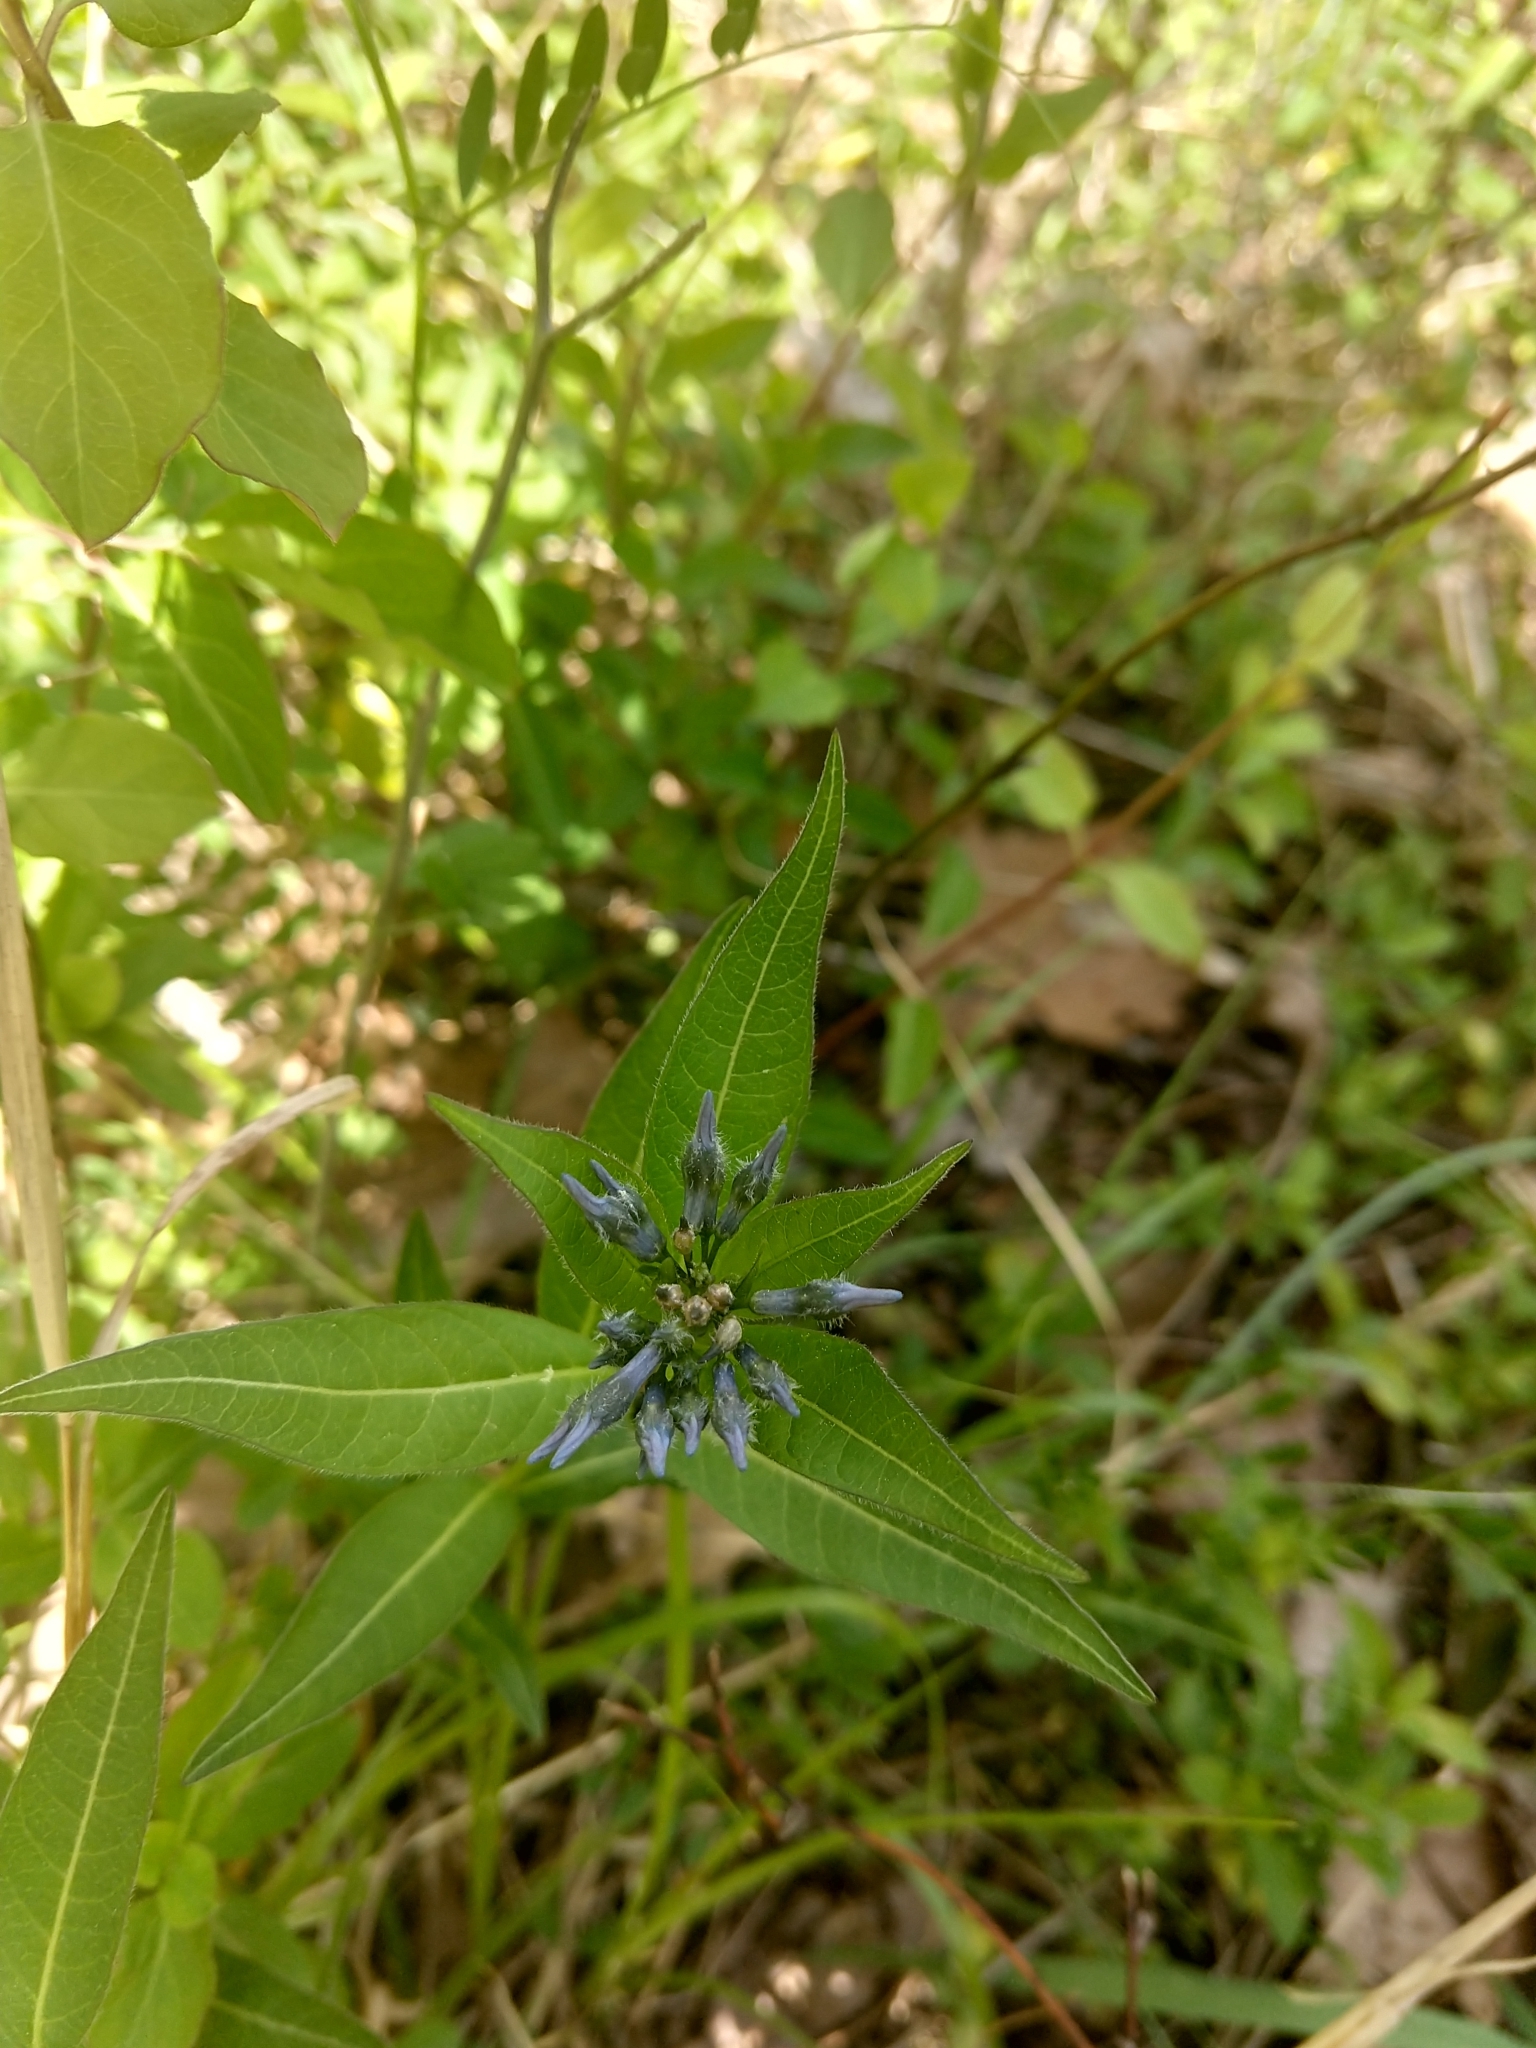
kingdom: Plantae
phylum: Tracheophyta
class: Magnoliopsida
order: Gentianales
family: Apocynaceae
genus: Amsonia
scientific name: Amsonia tabernaemontana
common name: Texas-star
